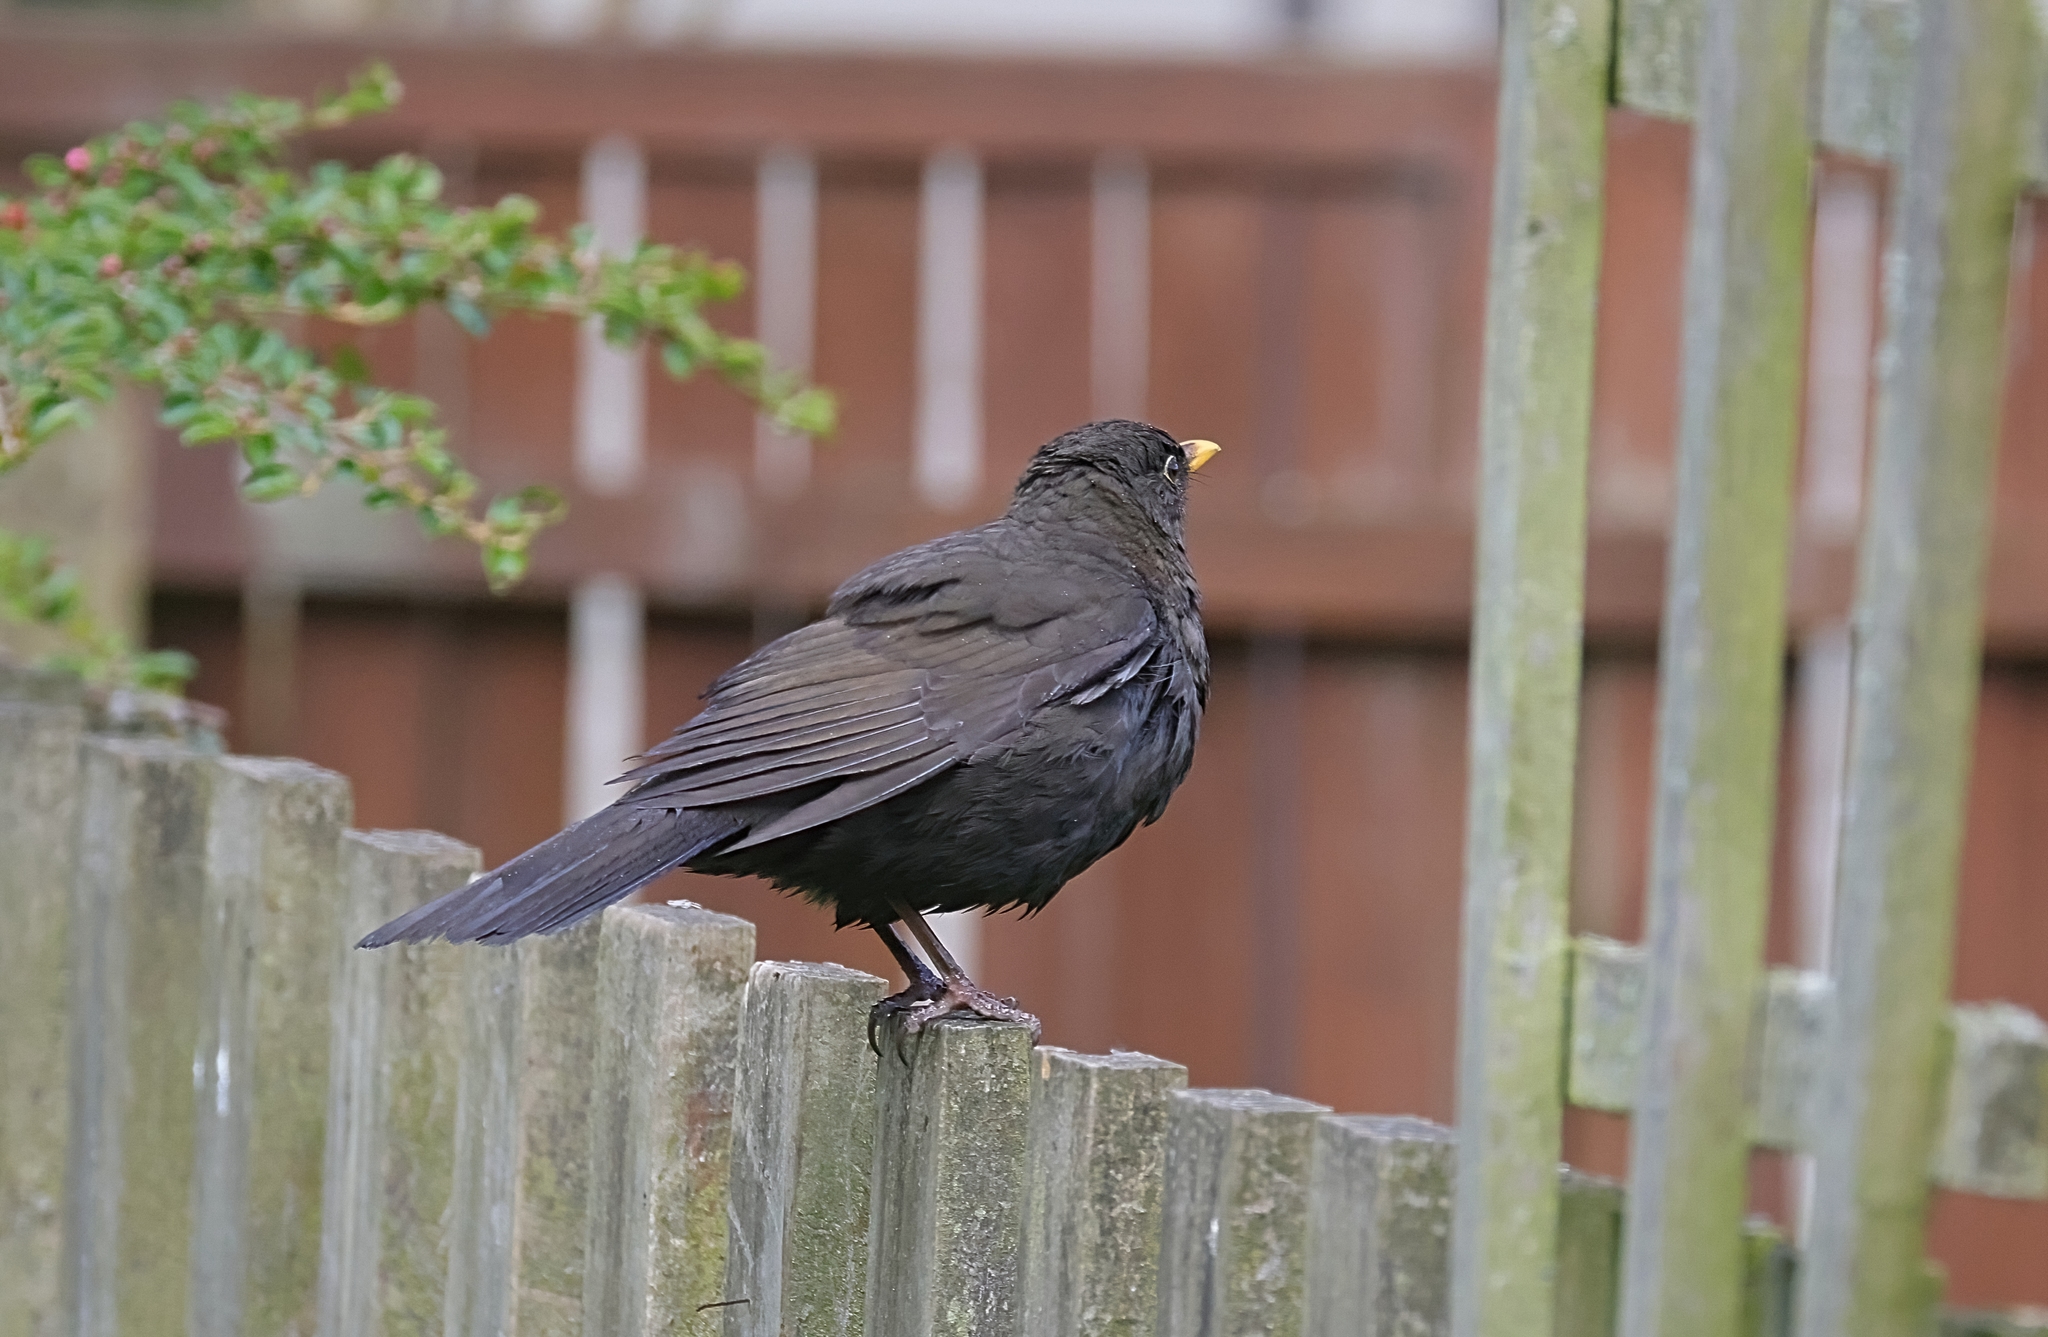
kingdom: Animalia
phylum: Chordata
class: Aves
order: Passeriformes
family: Turdidae
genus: Turdus
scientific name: Turdus merula
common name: Common blackbird
